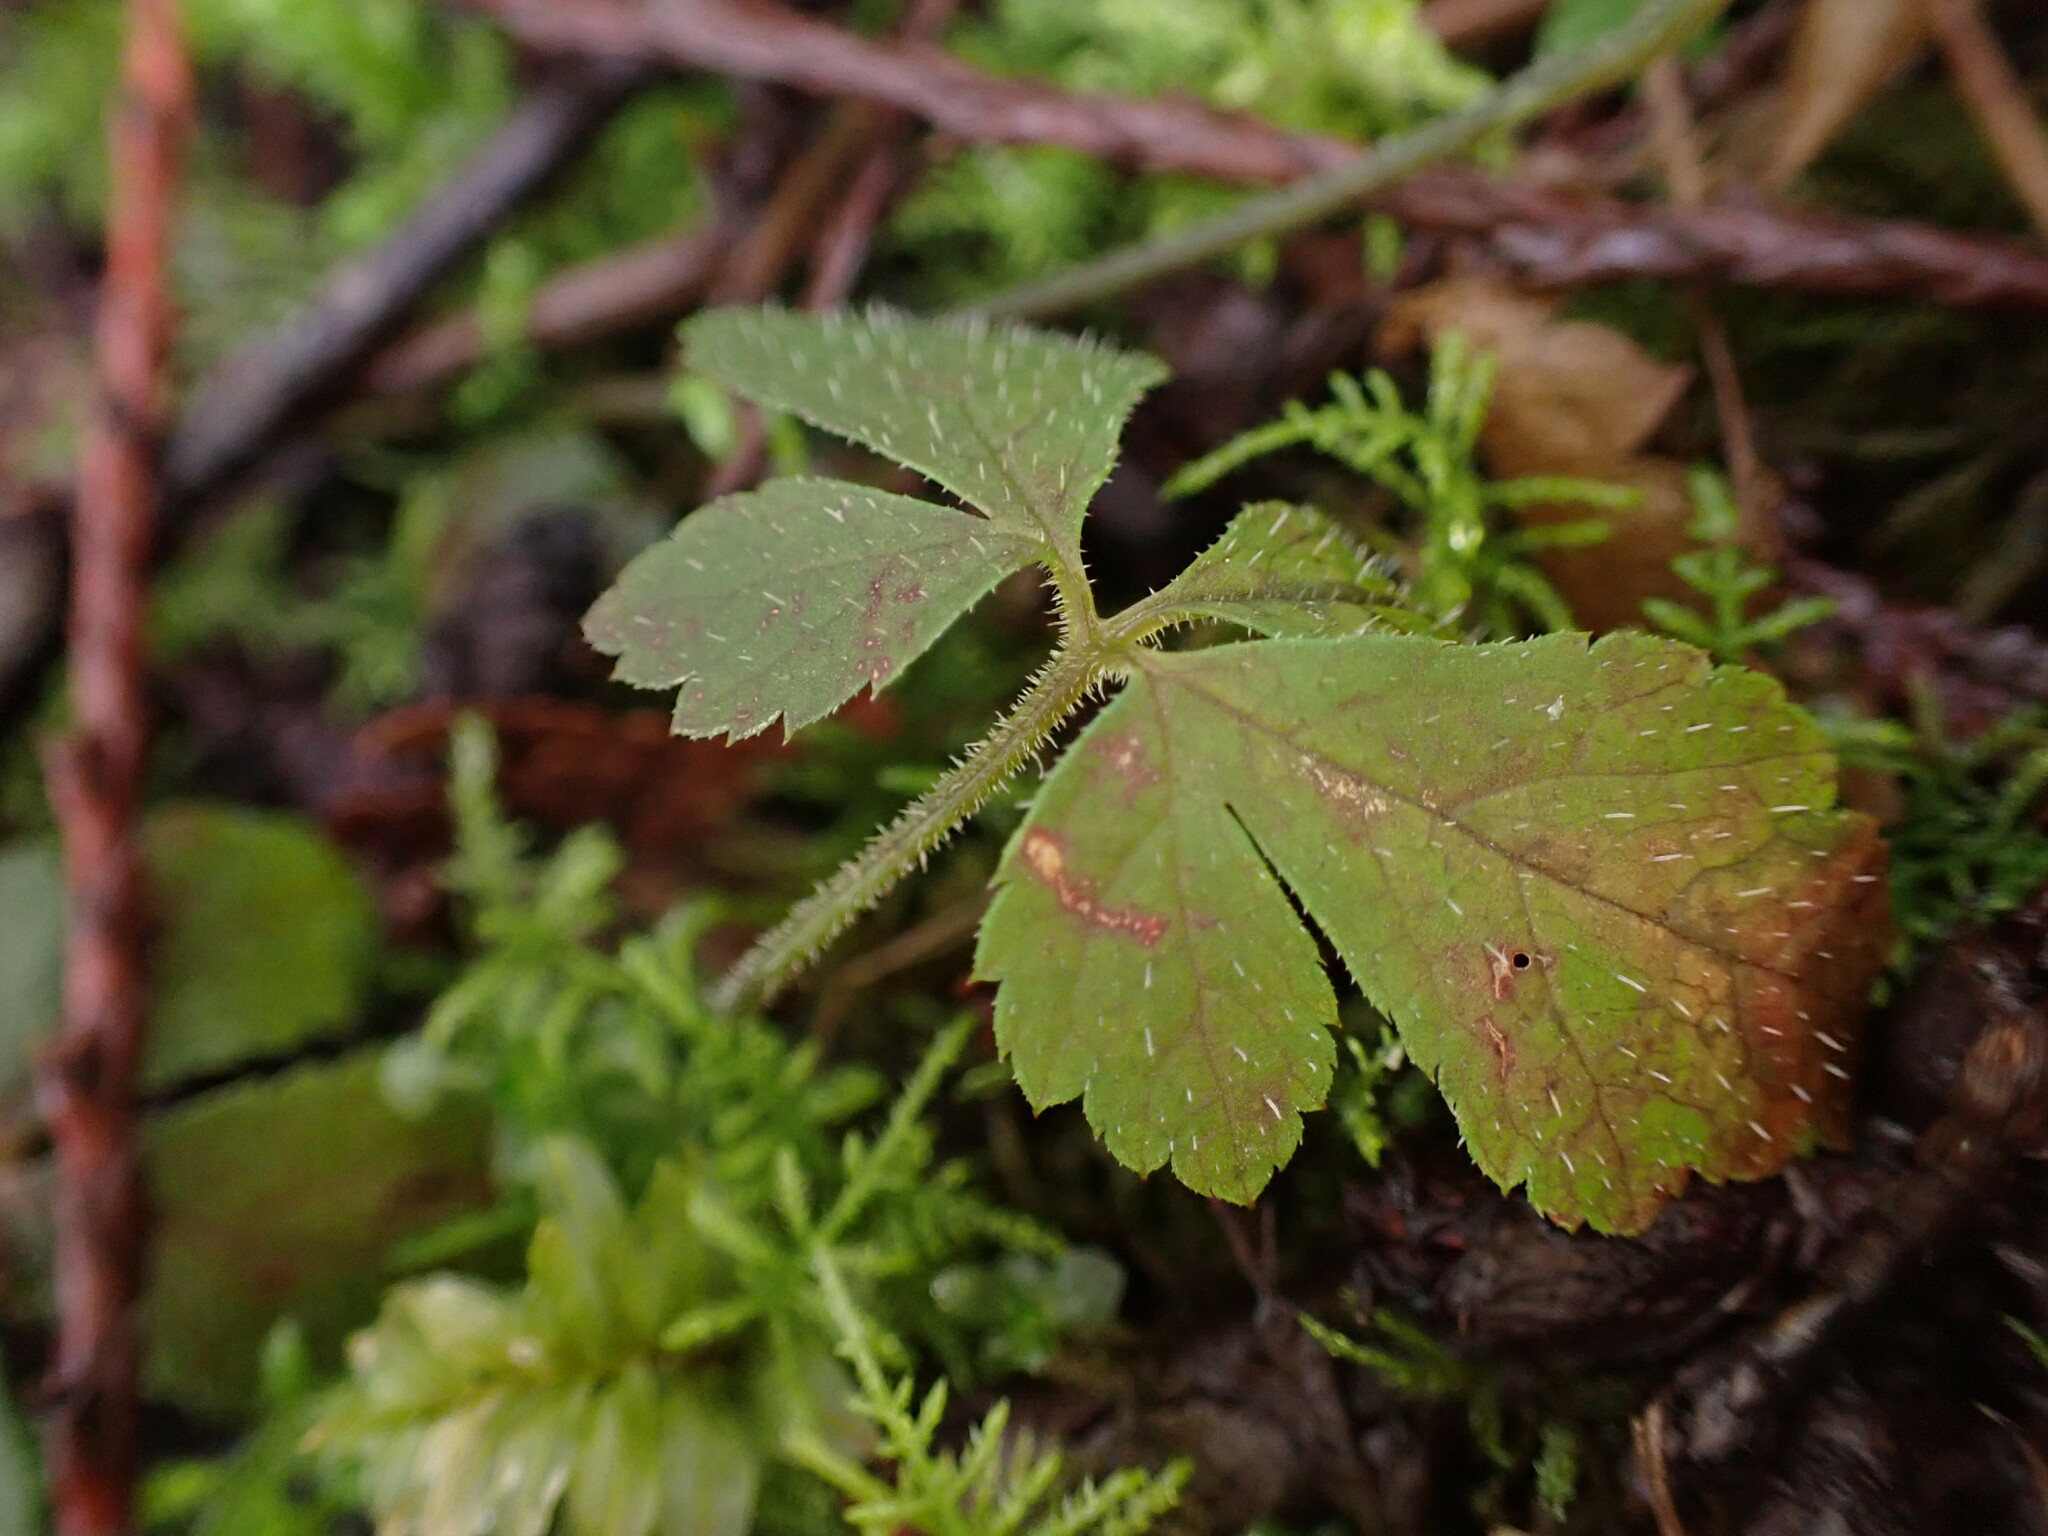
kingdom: Plantae
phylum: Tracheophyta
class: Magnoliopsida
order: Saxifragales
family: Saxifragaceae
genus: Tiarella
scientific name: Tiarella trifoliata
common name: Sugar-scoop
